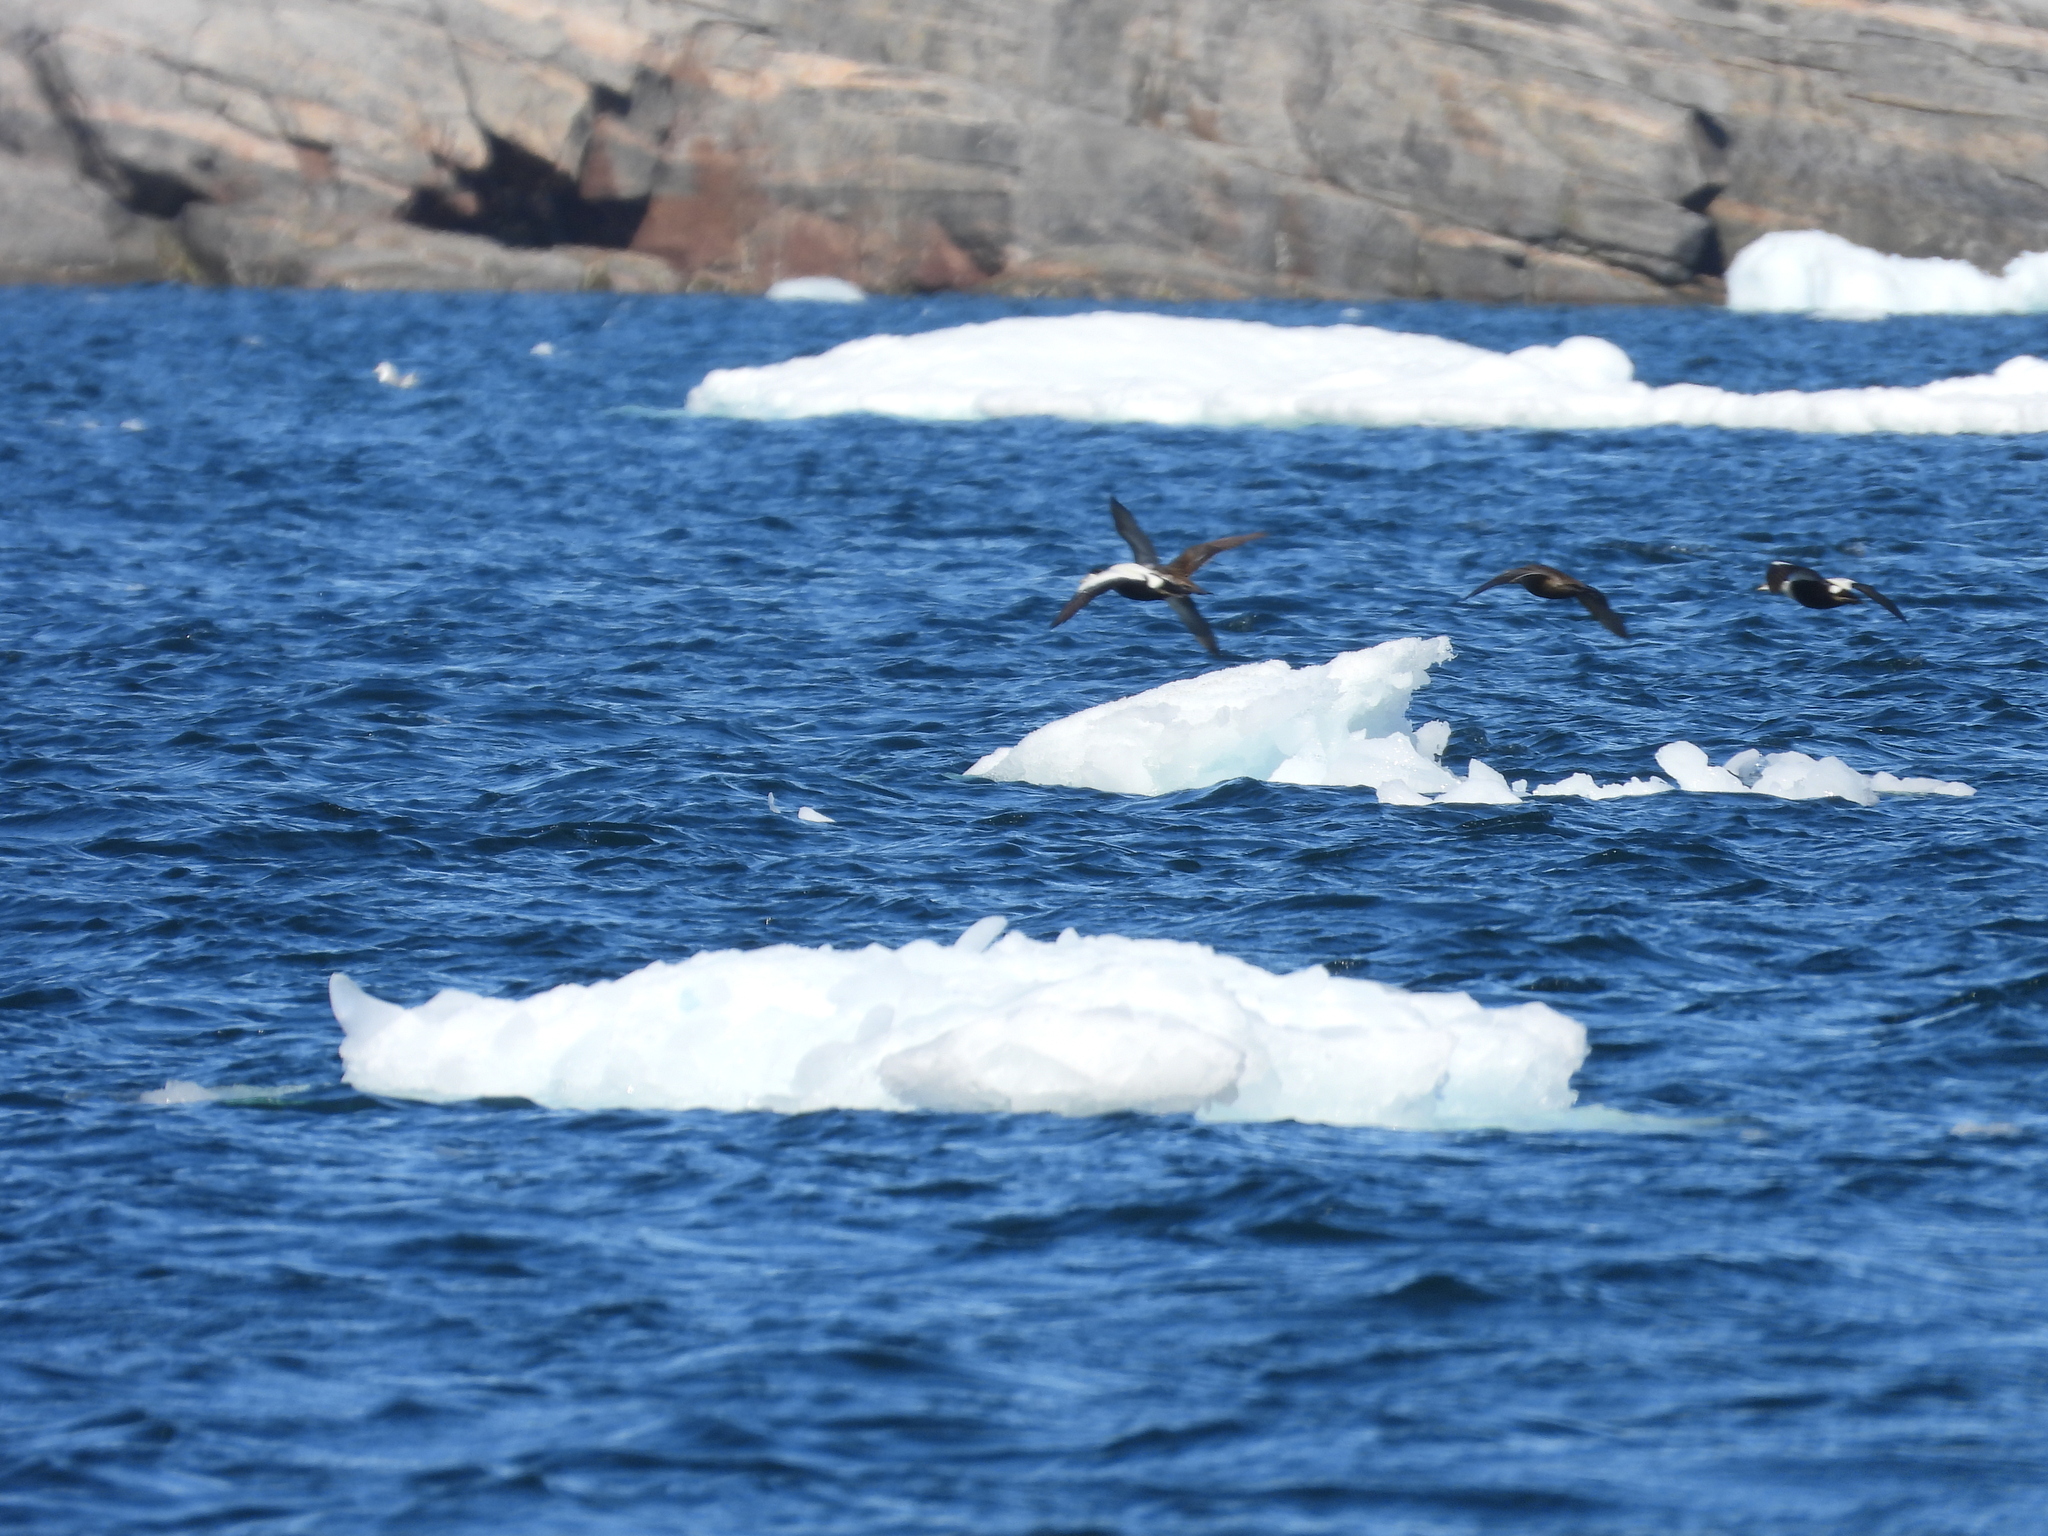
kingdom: Animalia
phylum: Chordata
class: Aves
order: Anseriformes
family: Anatidae
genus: Somateria
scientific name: Somateria mollissima
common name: Common eider
